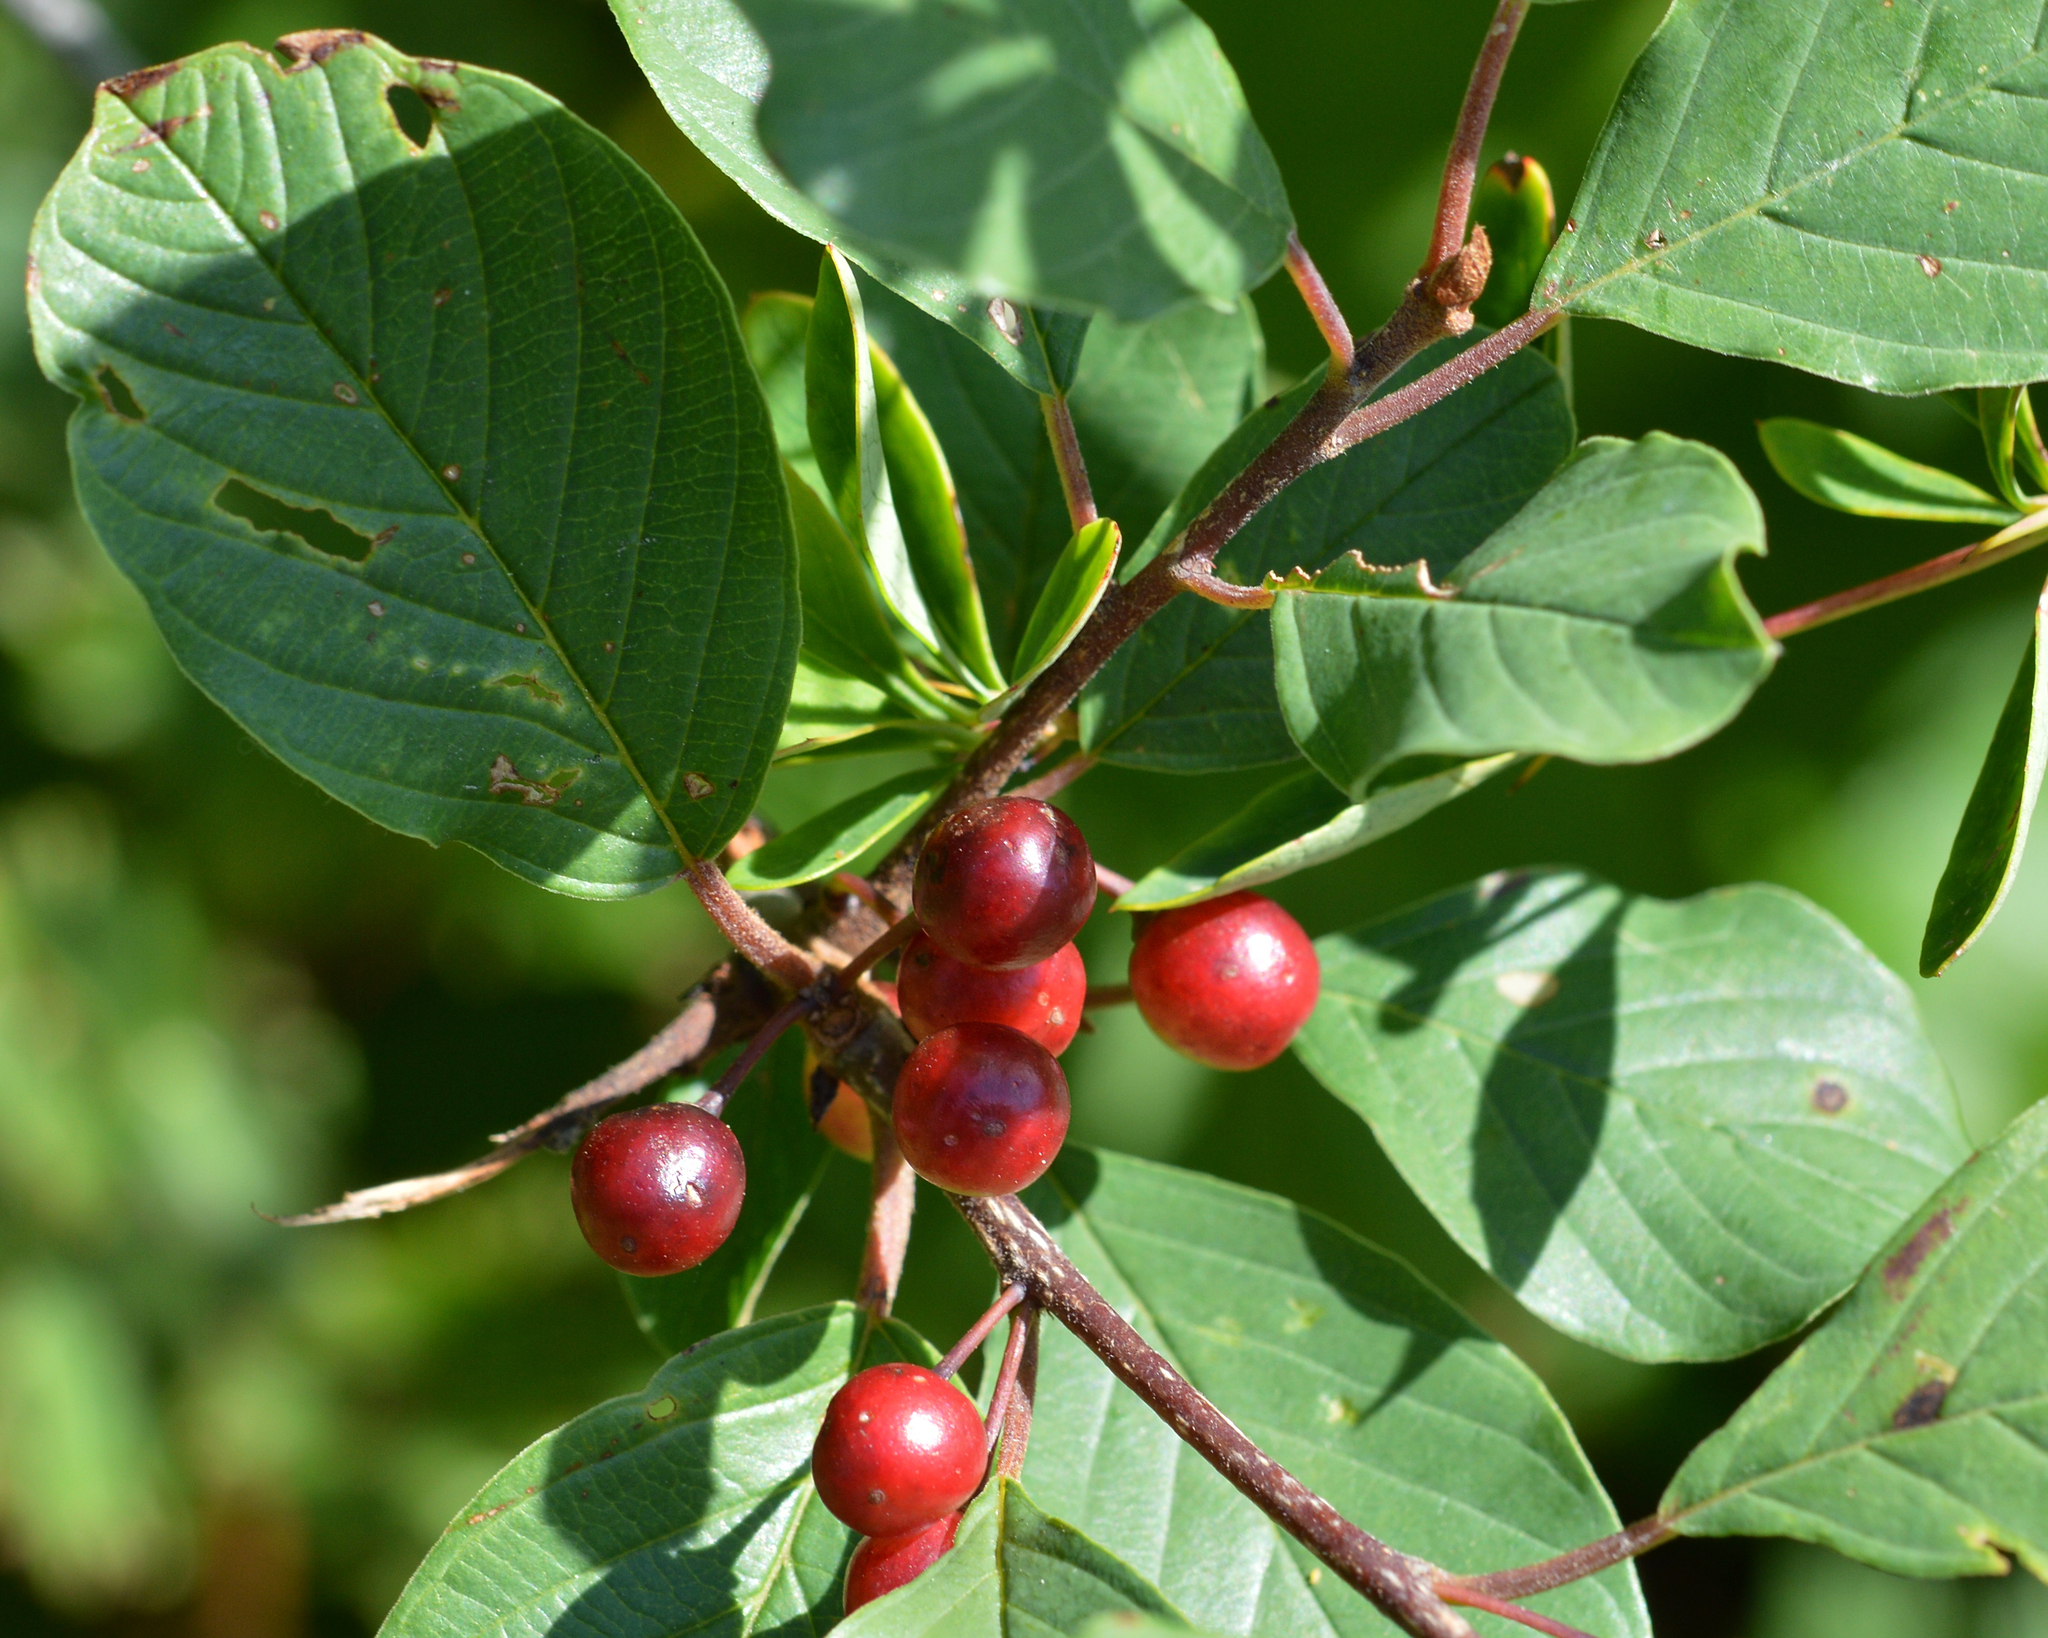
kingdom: Plantae
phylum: Tracheophyta
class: Magnoliopsida
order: Rosales
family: Rhamnaceae
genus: Frangula
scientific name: Frangula alnus
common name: Alder buckthorn
